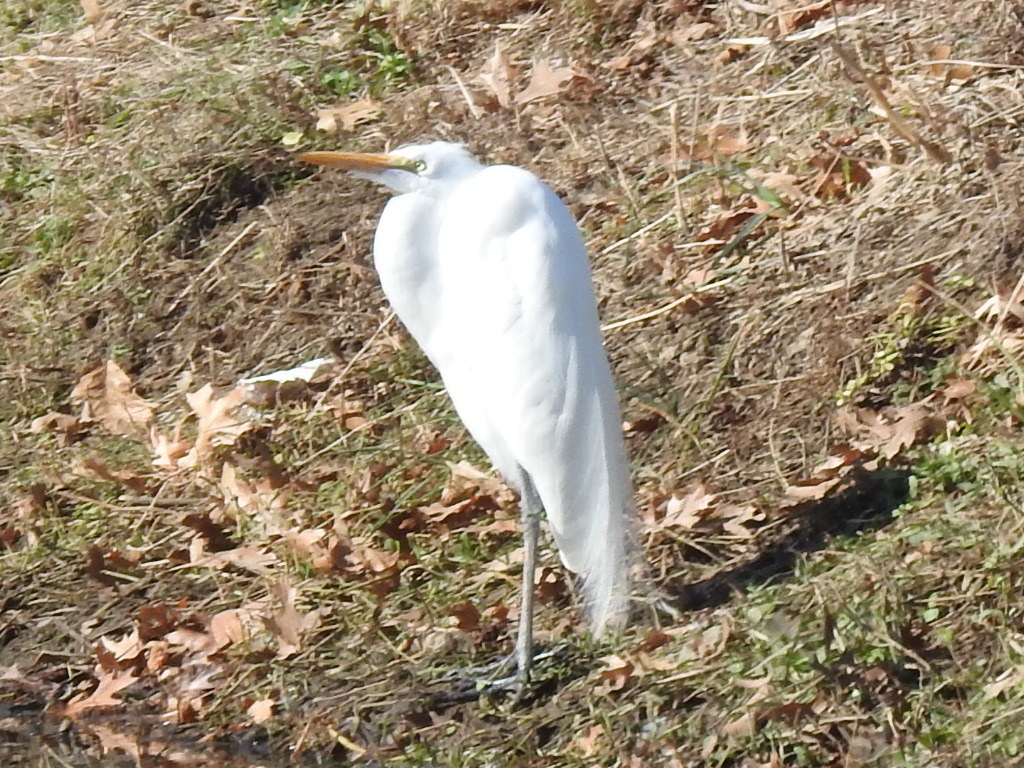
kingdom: Animalia
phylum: Chordata
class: Aves
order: Pelecaniformes
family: Ardeidae
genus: Ardea
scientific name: Ardea alba
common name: Great egret
